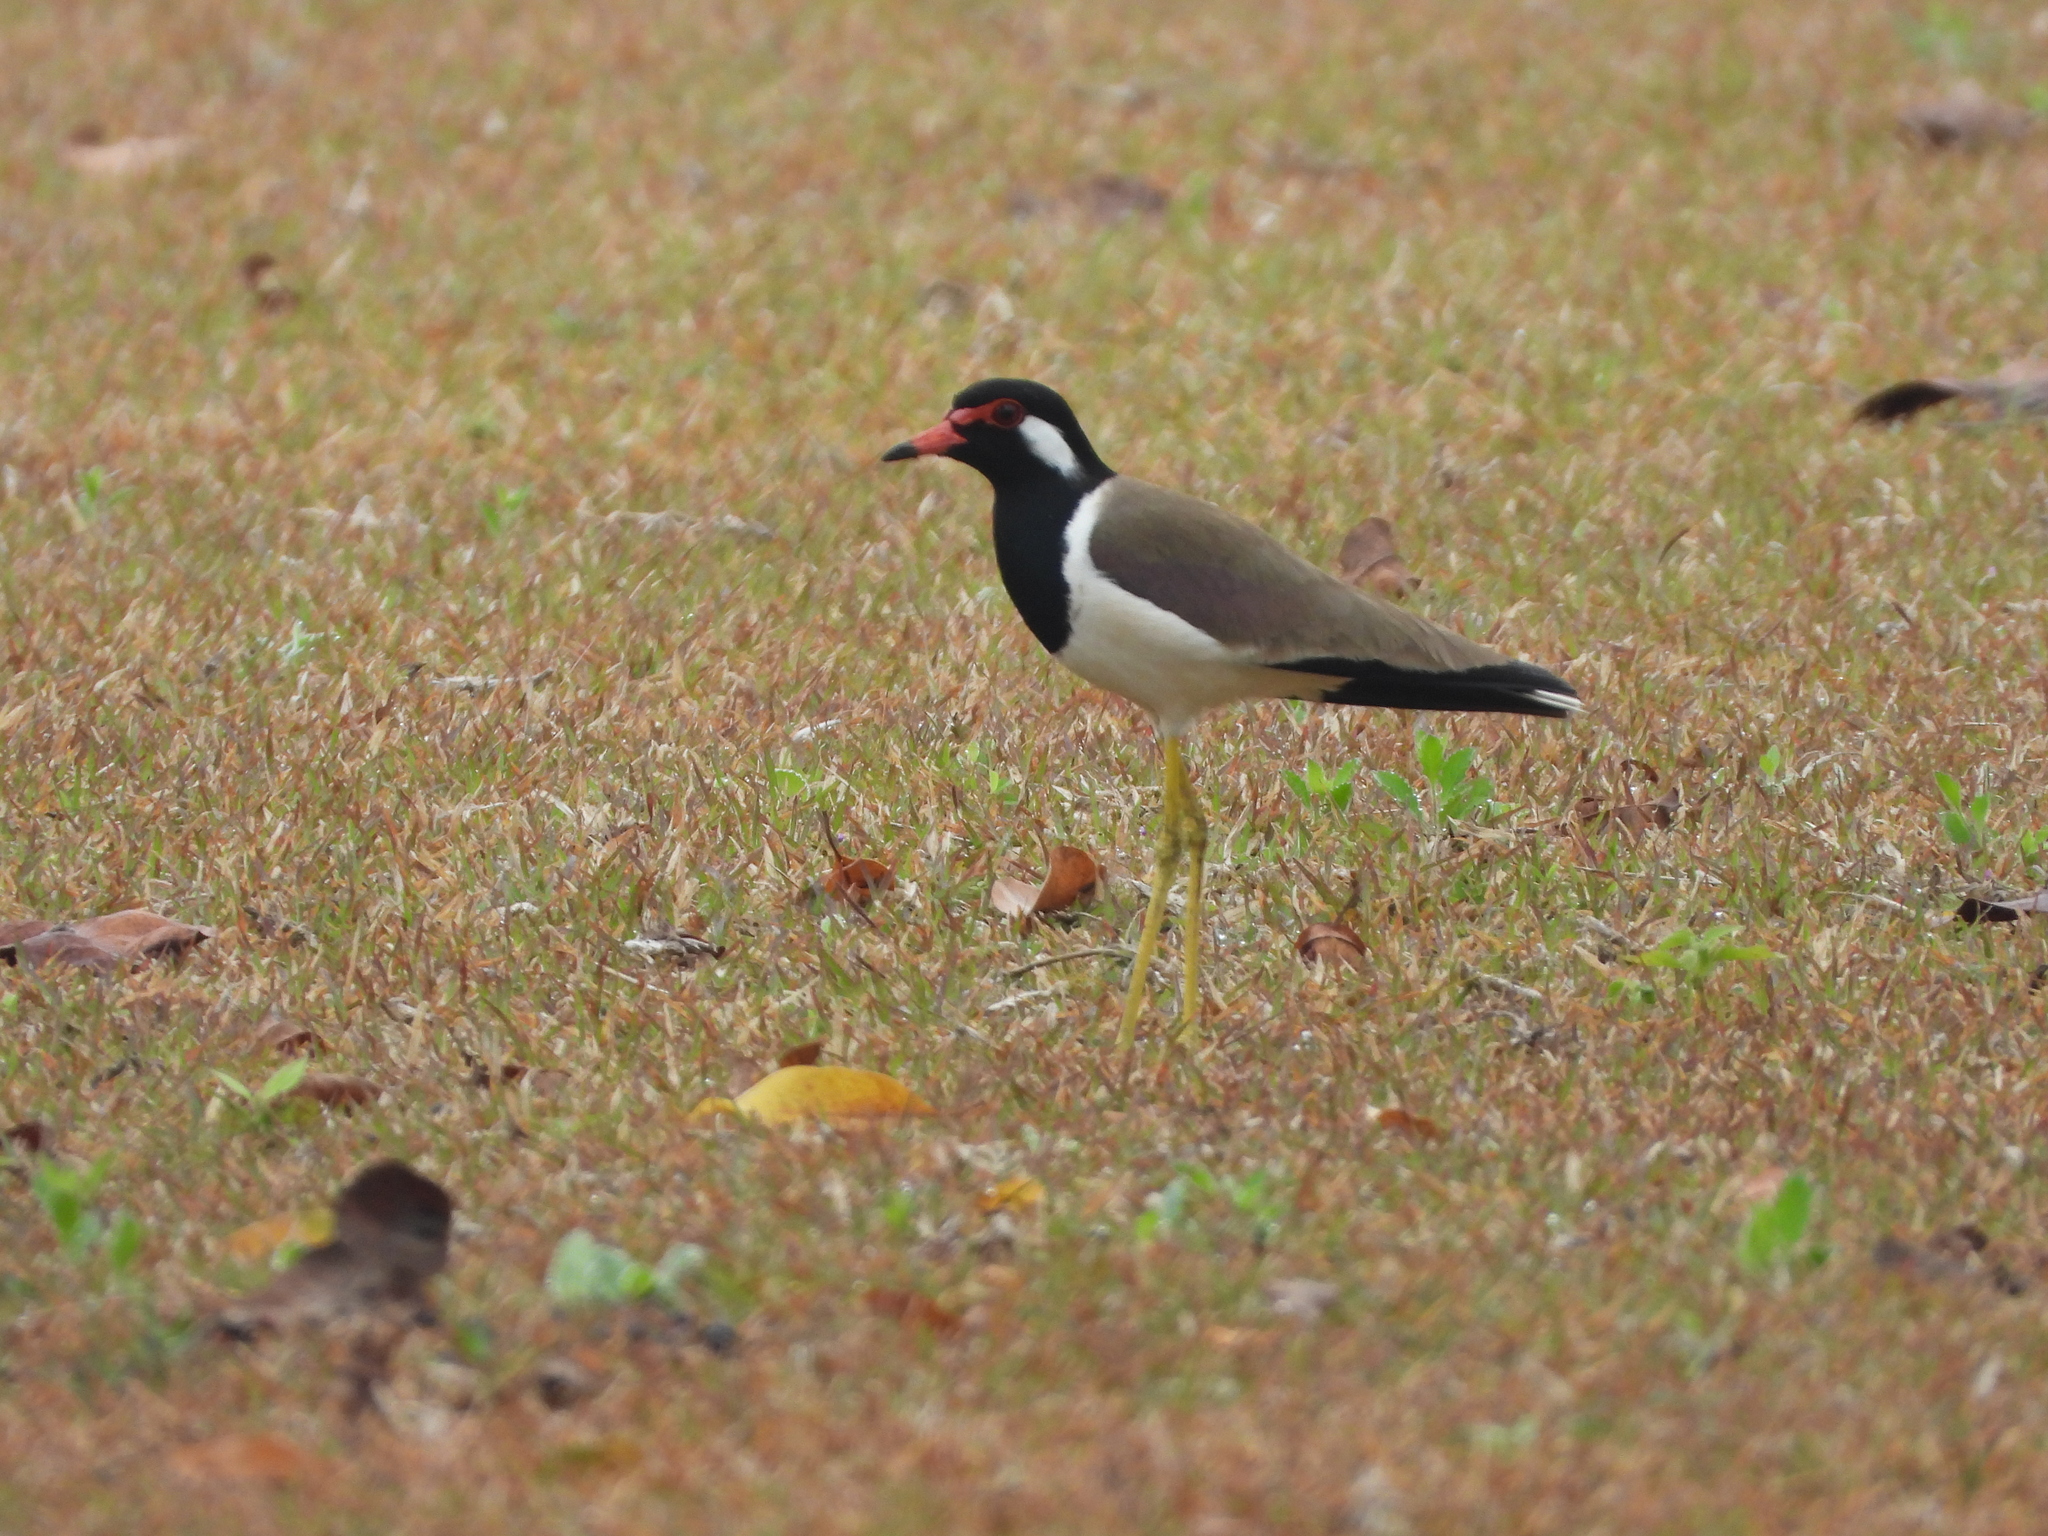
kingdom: Animalia
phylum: Chordata
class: Aves
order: Charadriiformes
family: Charadriidae
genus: Vanellus
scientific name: Vanellus indicus
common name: Red-wattled lapwing
